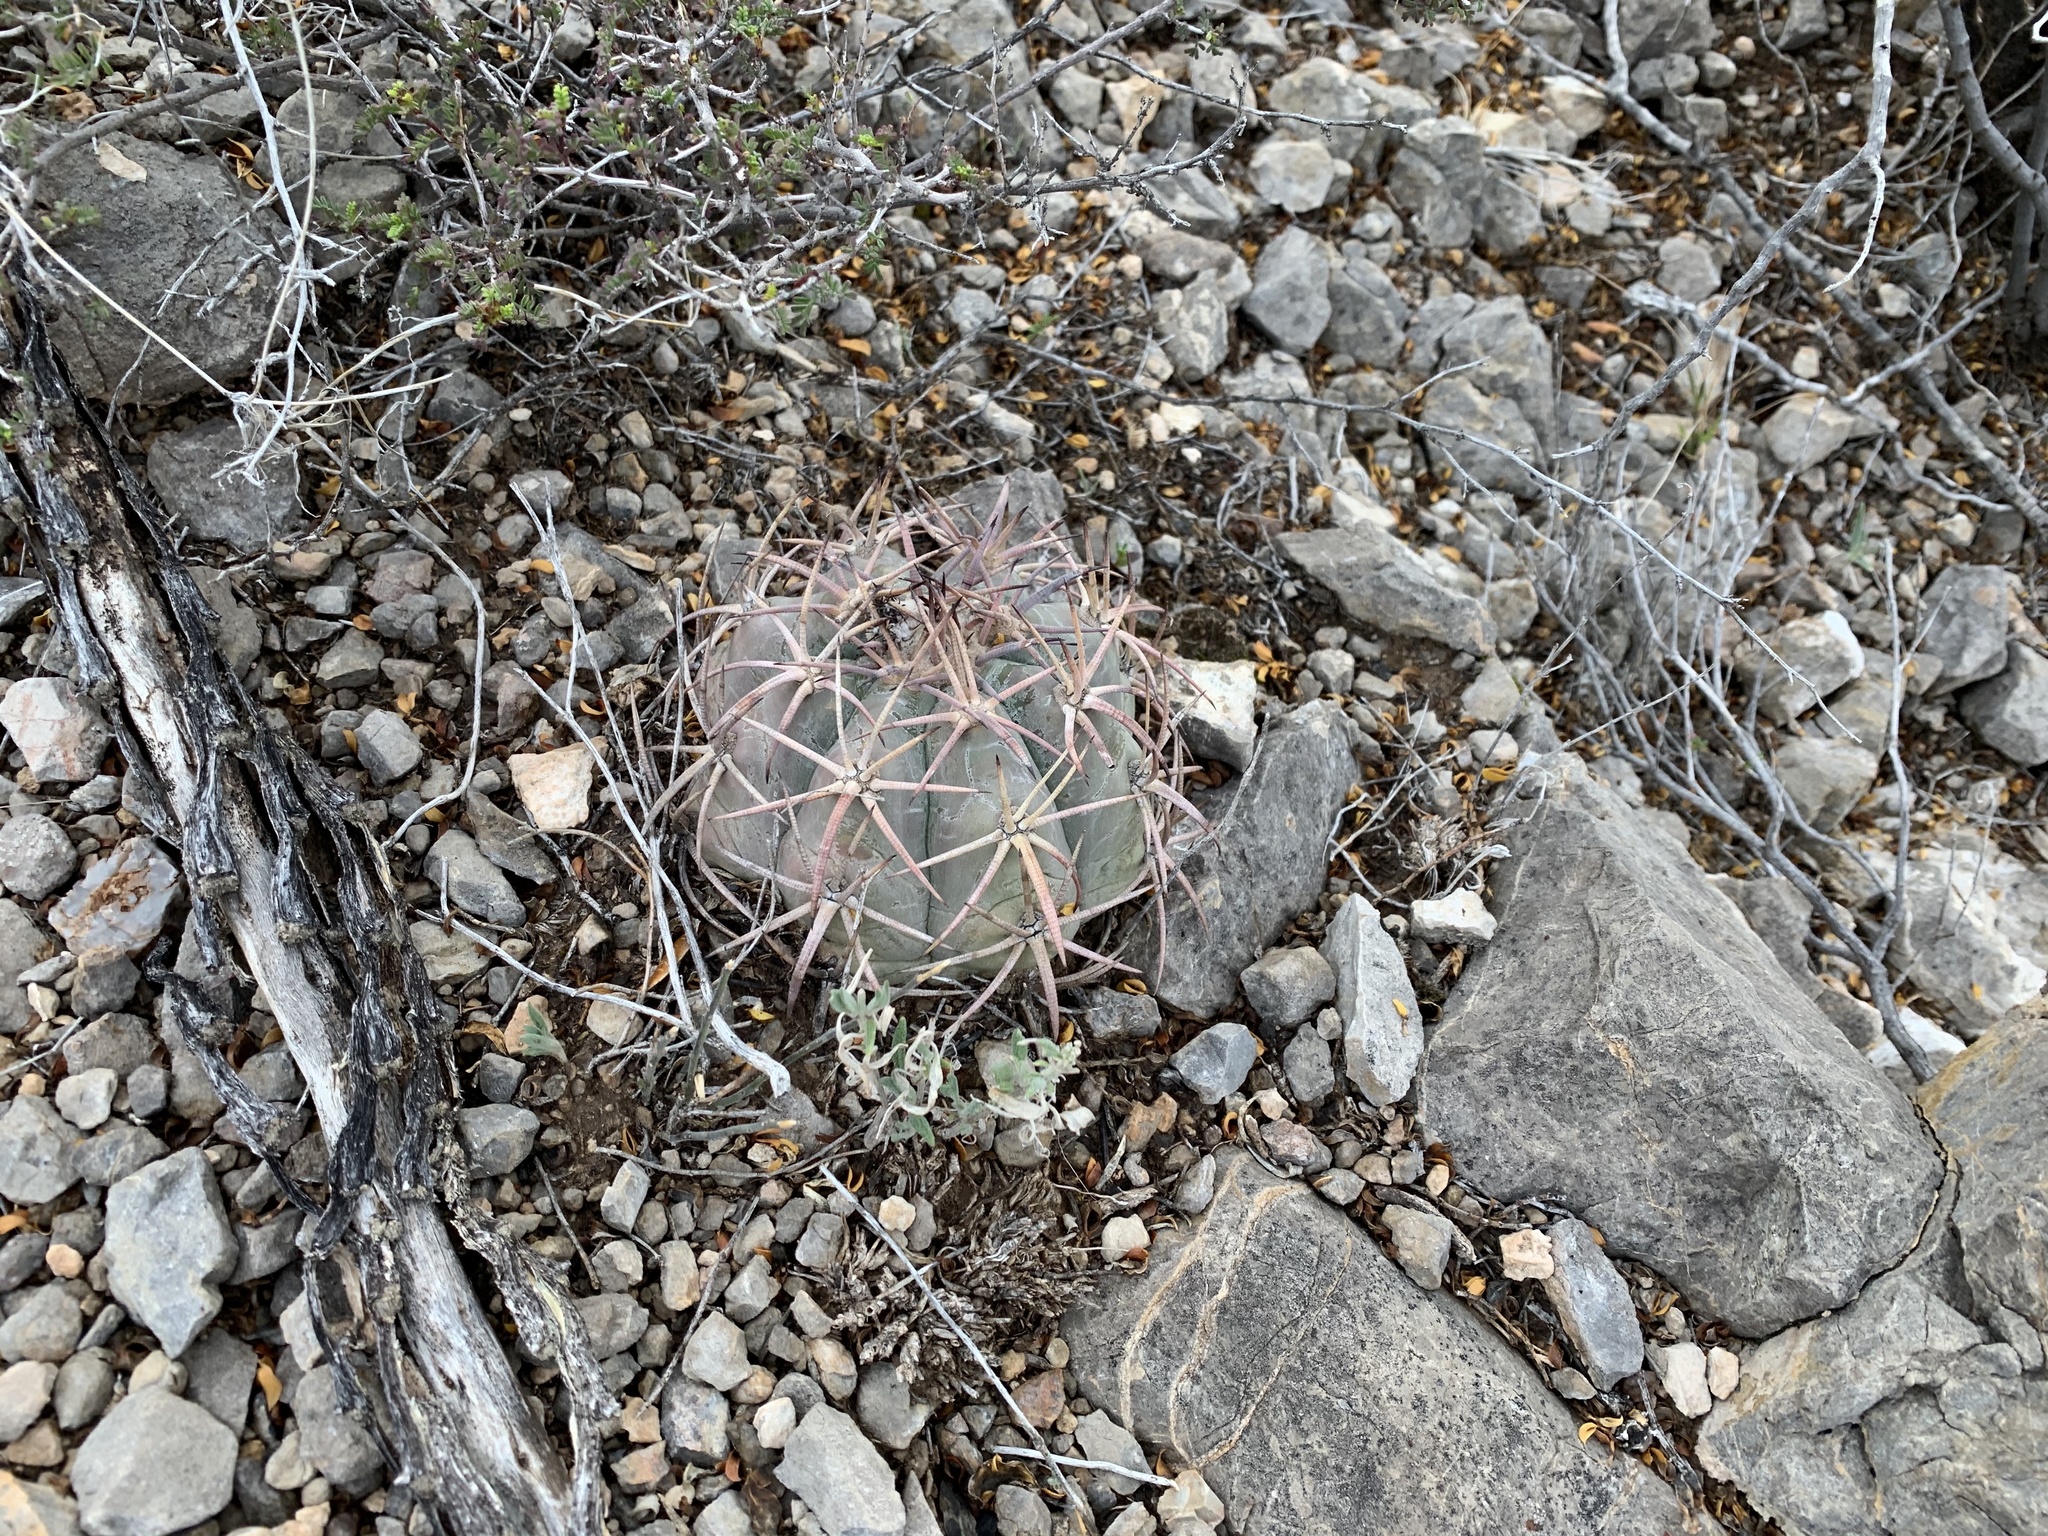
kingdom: Plantae
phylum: Tracheophyta
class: Magnoliopsida
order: Caryophyllales
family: Cactaceae
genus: Echinocactus
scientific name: Echinocactus horizonthalonius
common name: Devilshead
